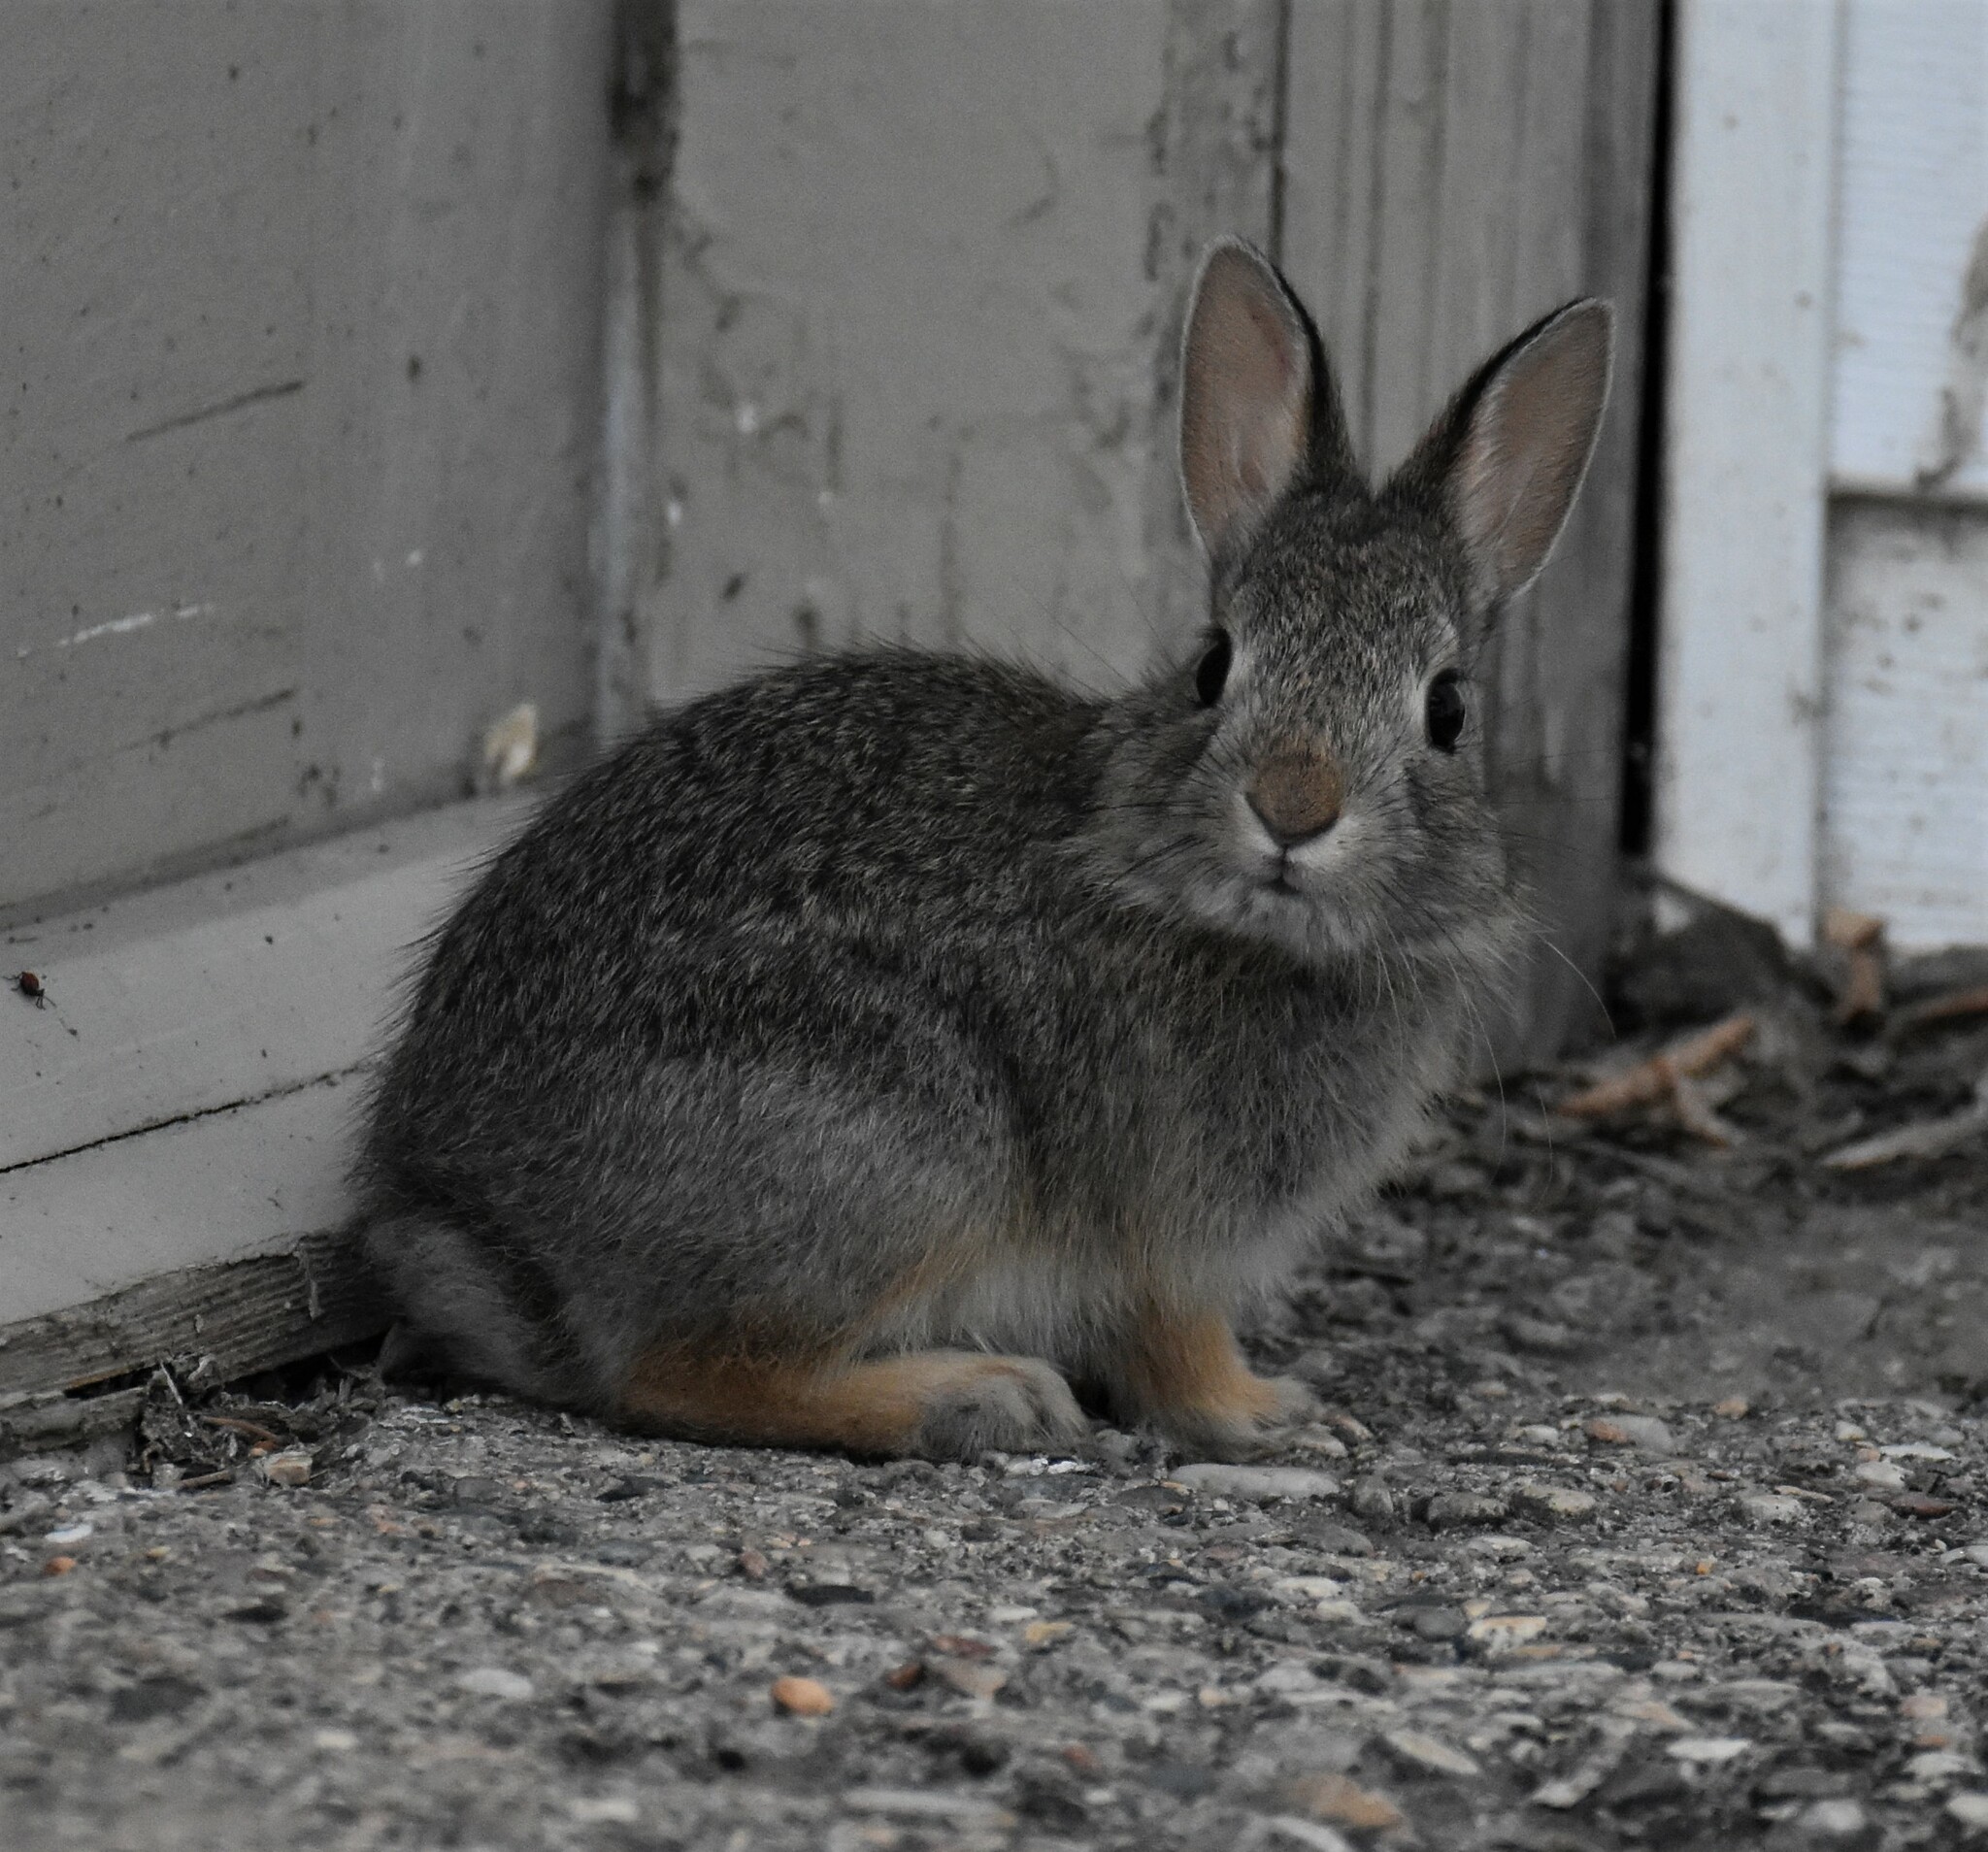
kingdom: Animalia
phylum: Chordata
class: Mammalia
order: Lagomorpha
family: Leporidae
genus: Sylvilagus
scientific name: Sylvilagus nuttallii
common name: Mountain cottontail
